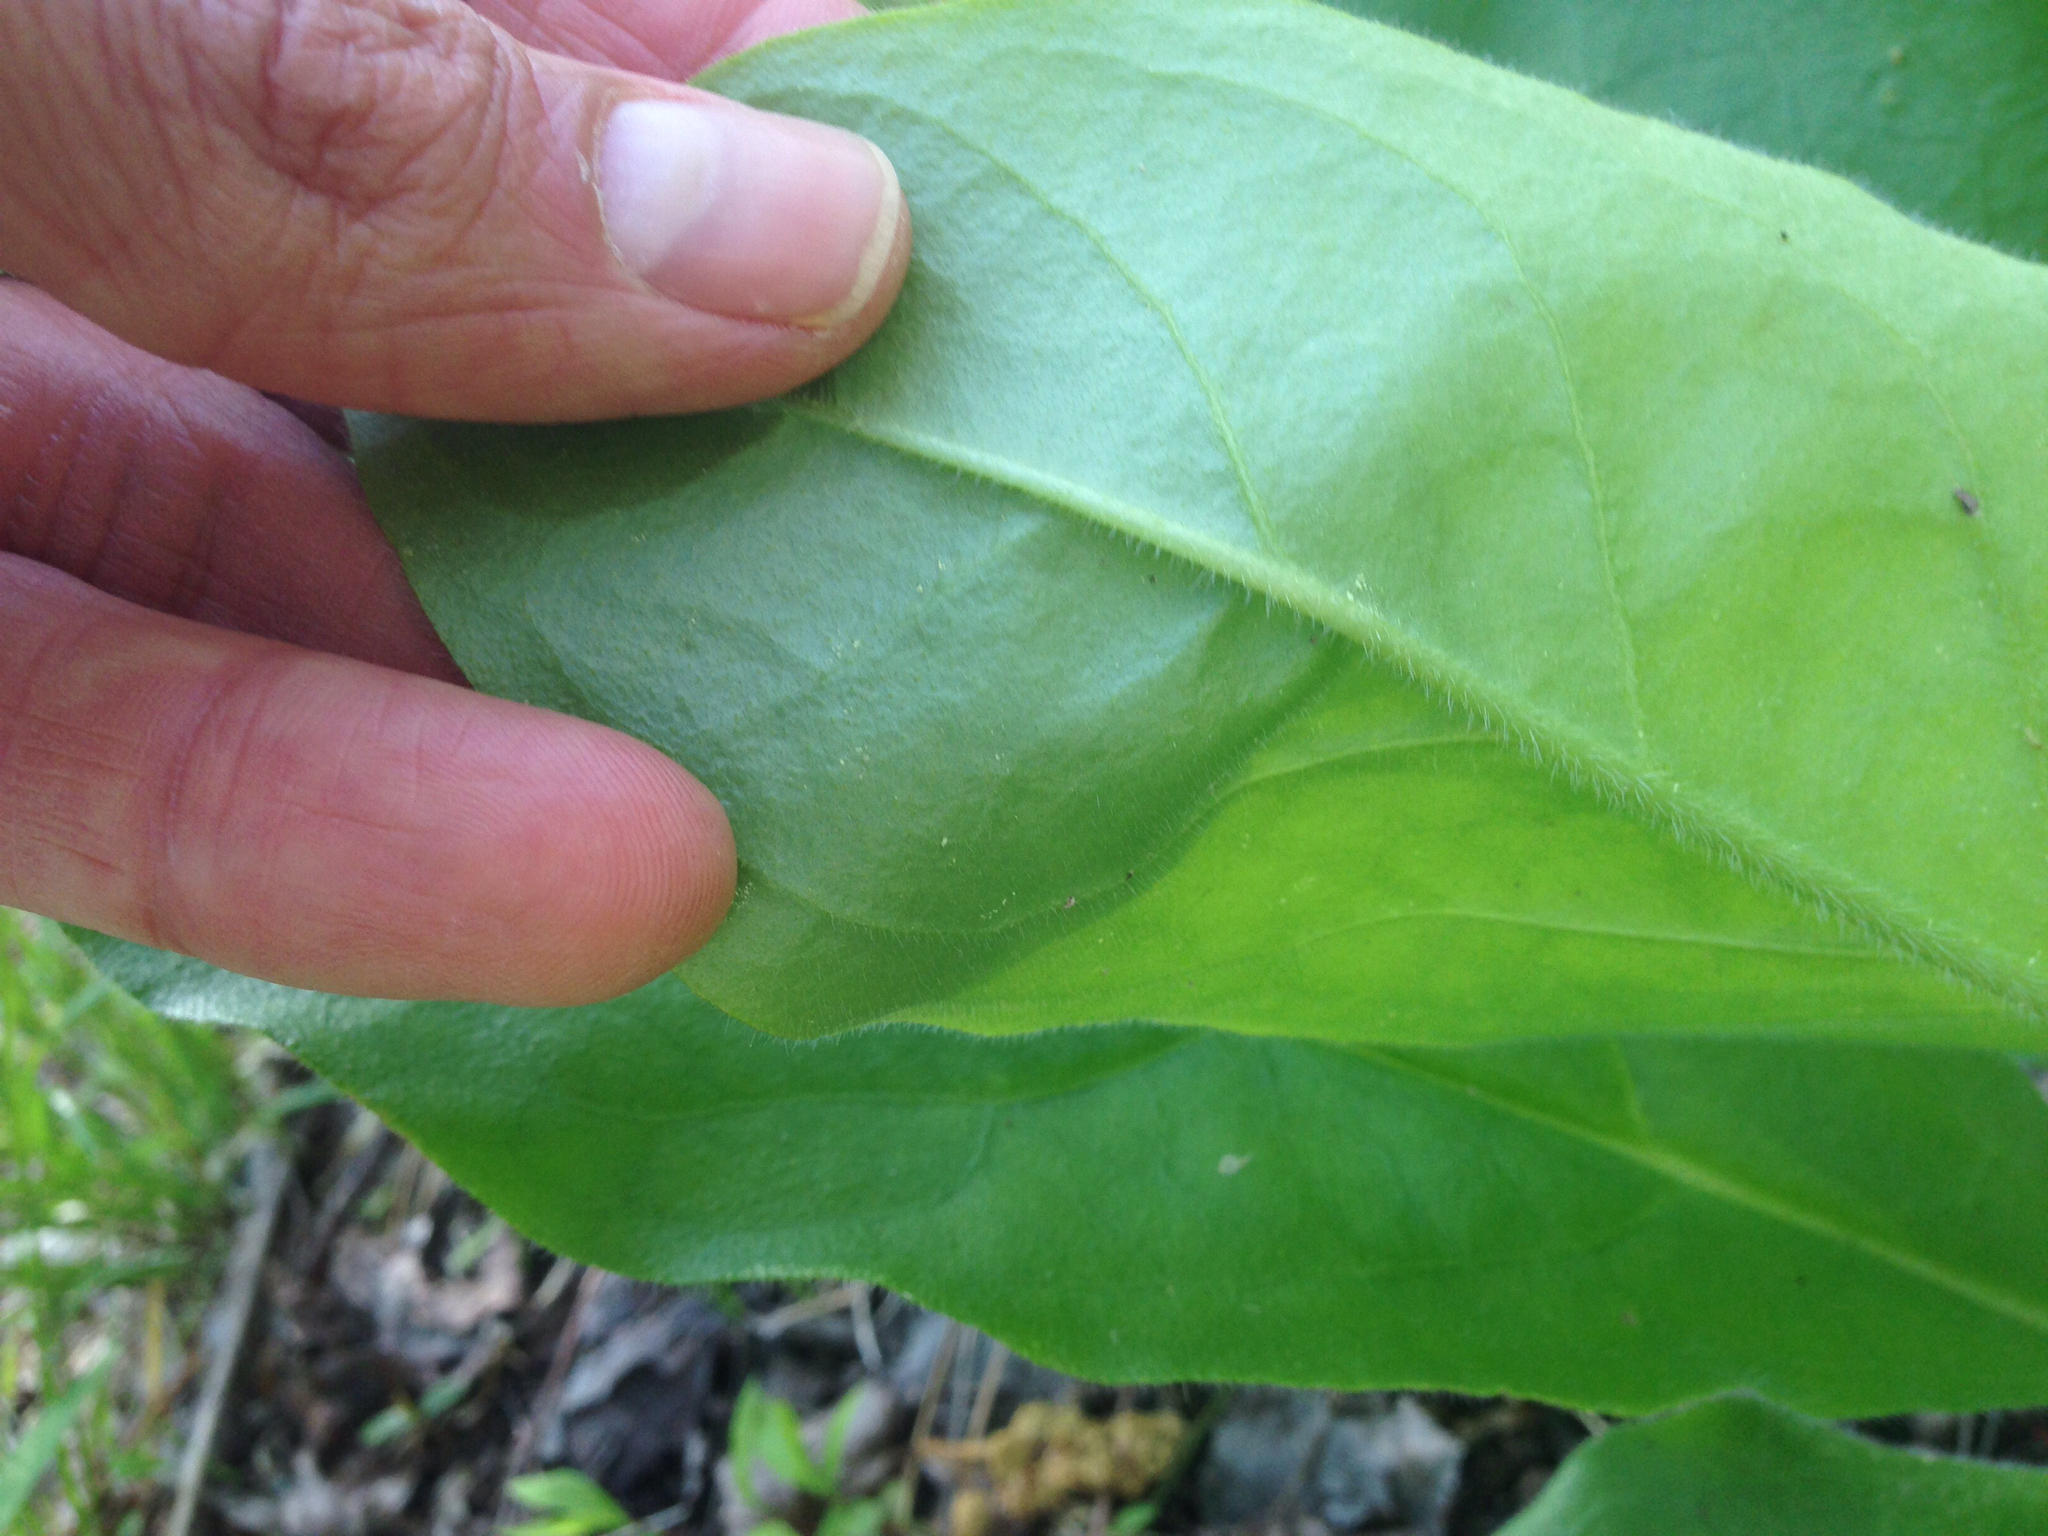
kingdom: Plantae
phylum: Tracheophyta
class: Magnoliopsida
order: Boraginales
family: Boraginaceae
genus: Andersonglossum
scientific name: Andersonglossum virginianum
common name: Wild comfrey
